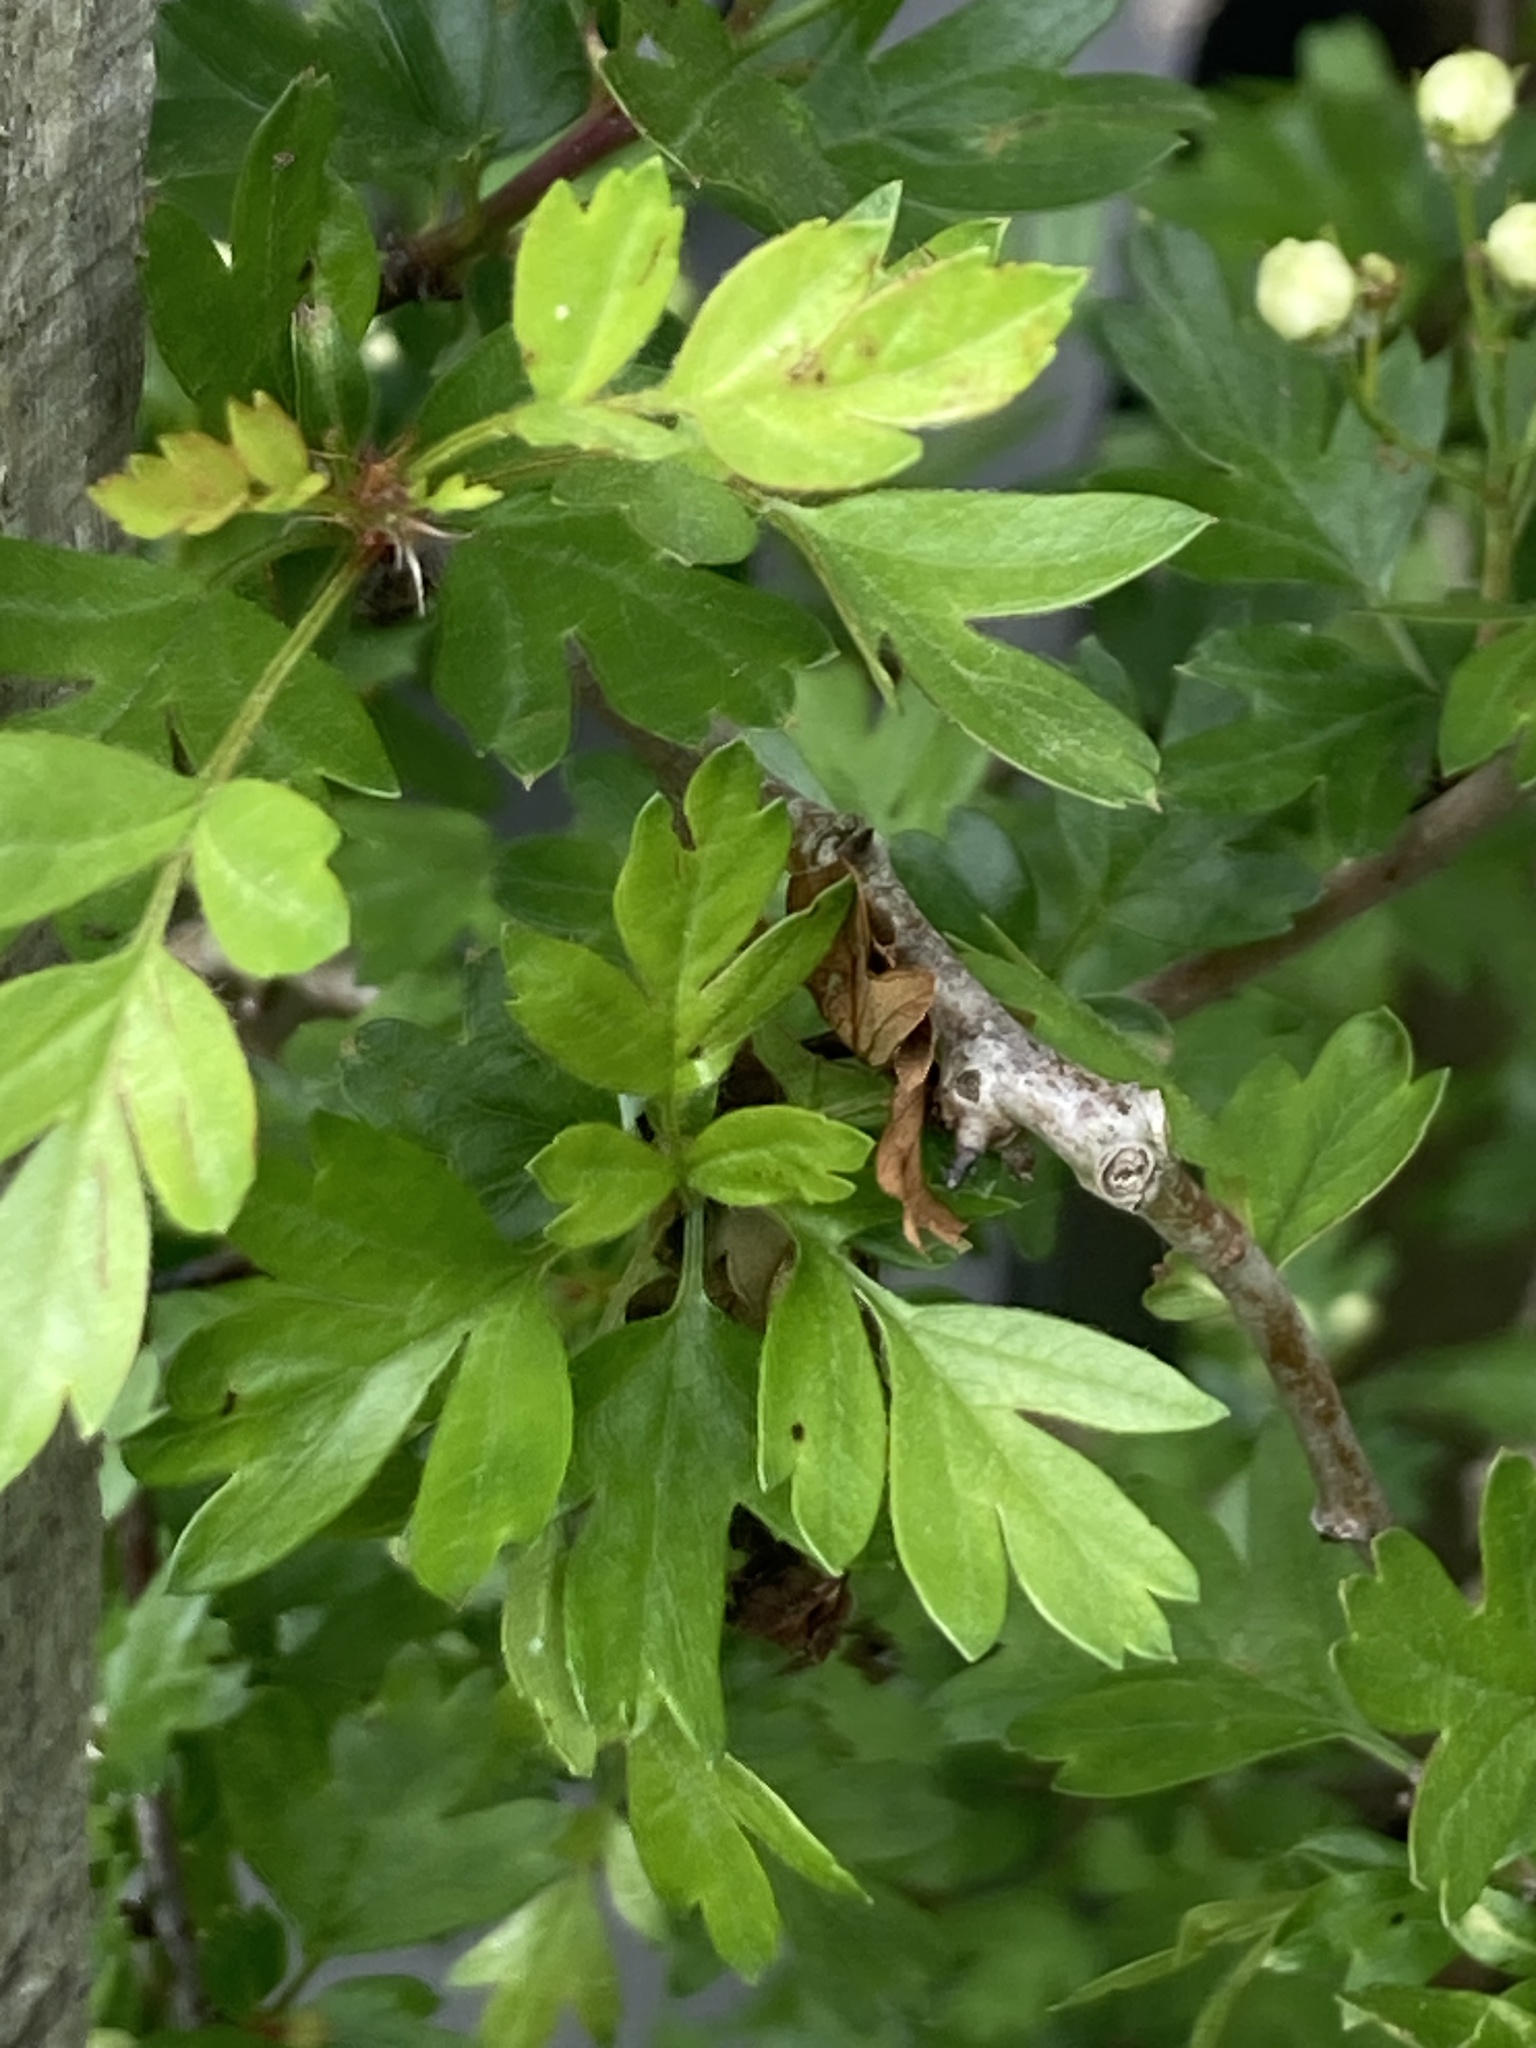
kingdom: Plantae
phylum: Tracheophyta
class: Magnoliopsida
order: Rosales
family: Rosaceae
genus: Crataegus
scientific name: Crataegus monogyna
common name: Hawthorn
